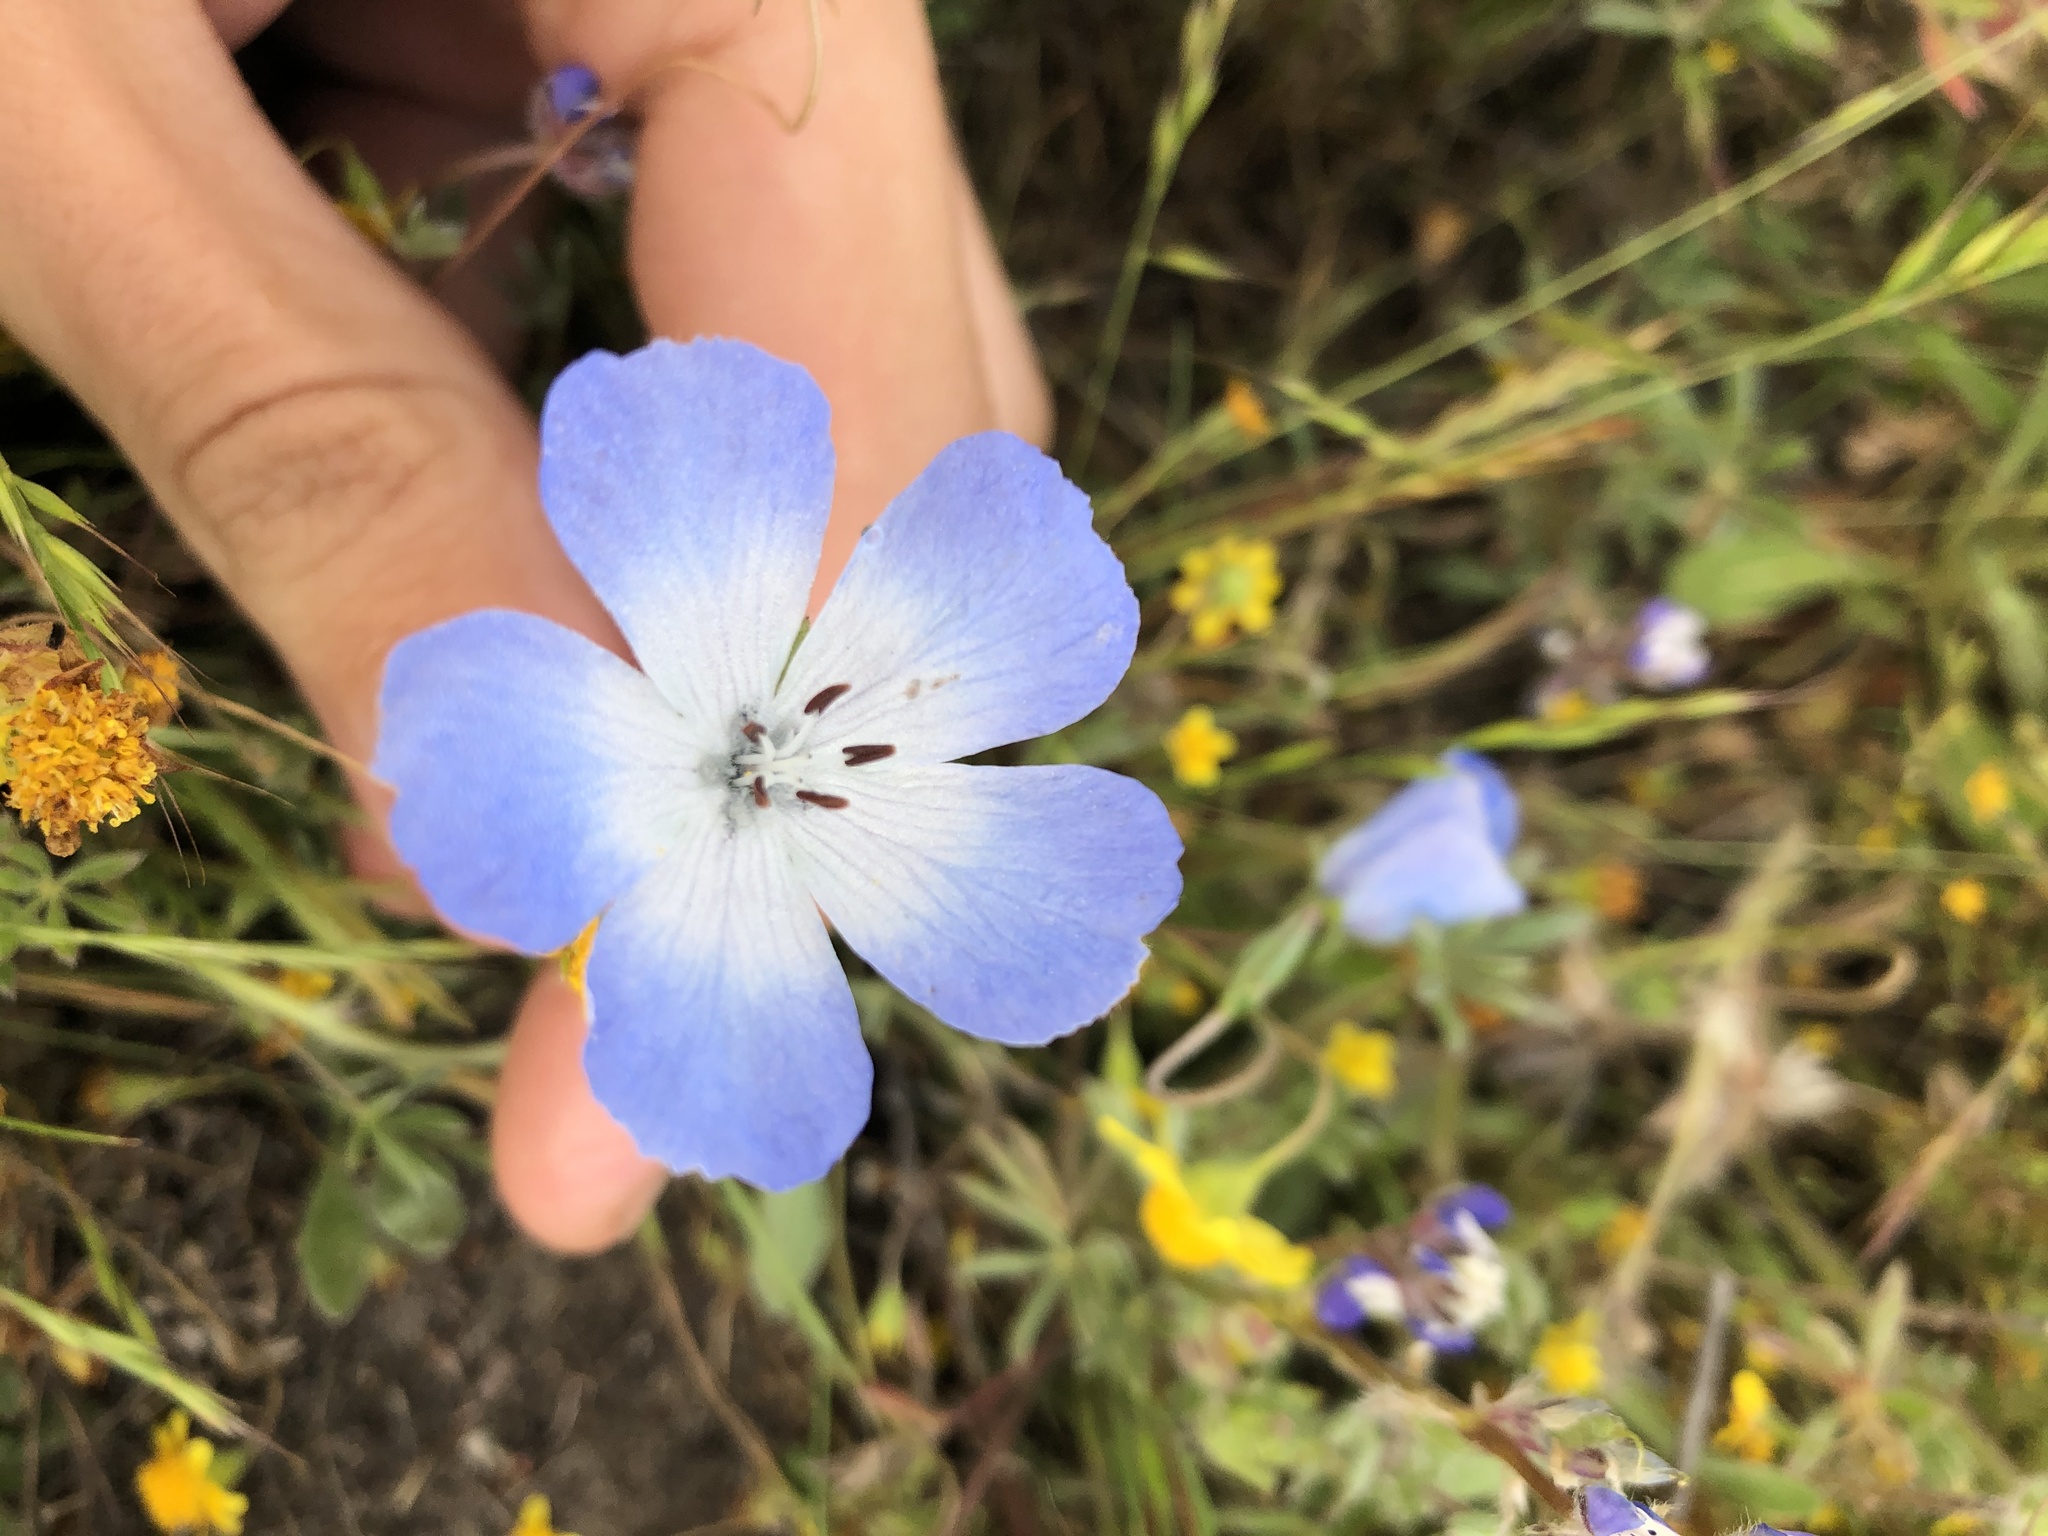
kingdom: Plantae
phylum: Tracheophyta
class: Magnoliopsida
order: Boraginales
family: Hydrophyllaceae
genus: Nemophila
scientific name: Nemophila menziesii
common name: Baby's-blue-eyes
